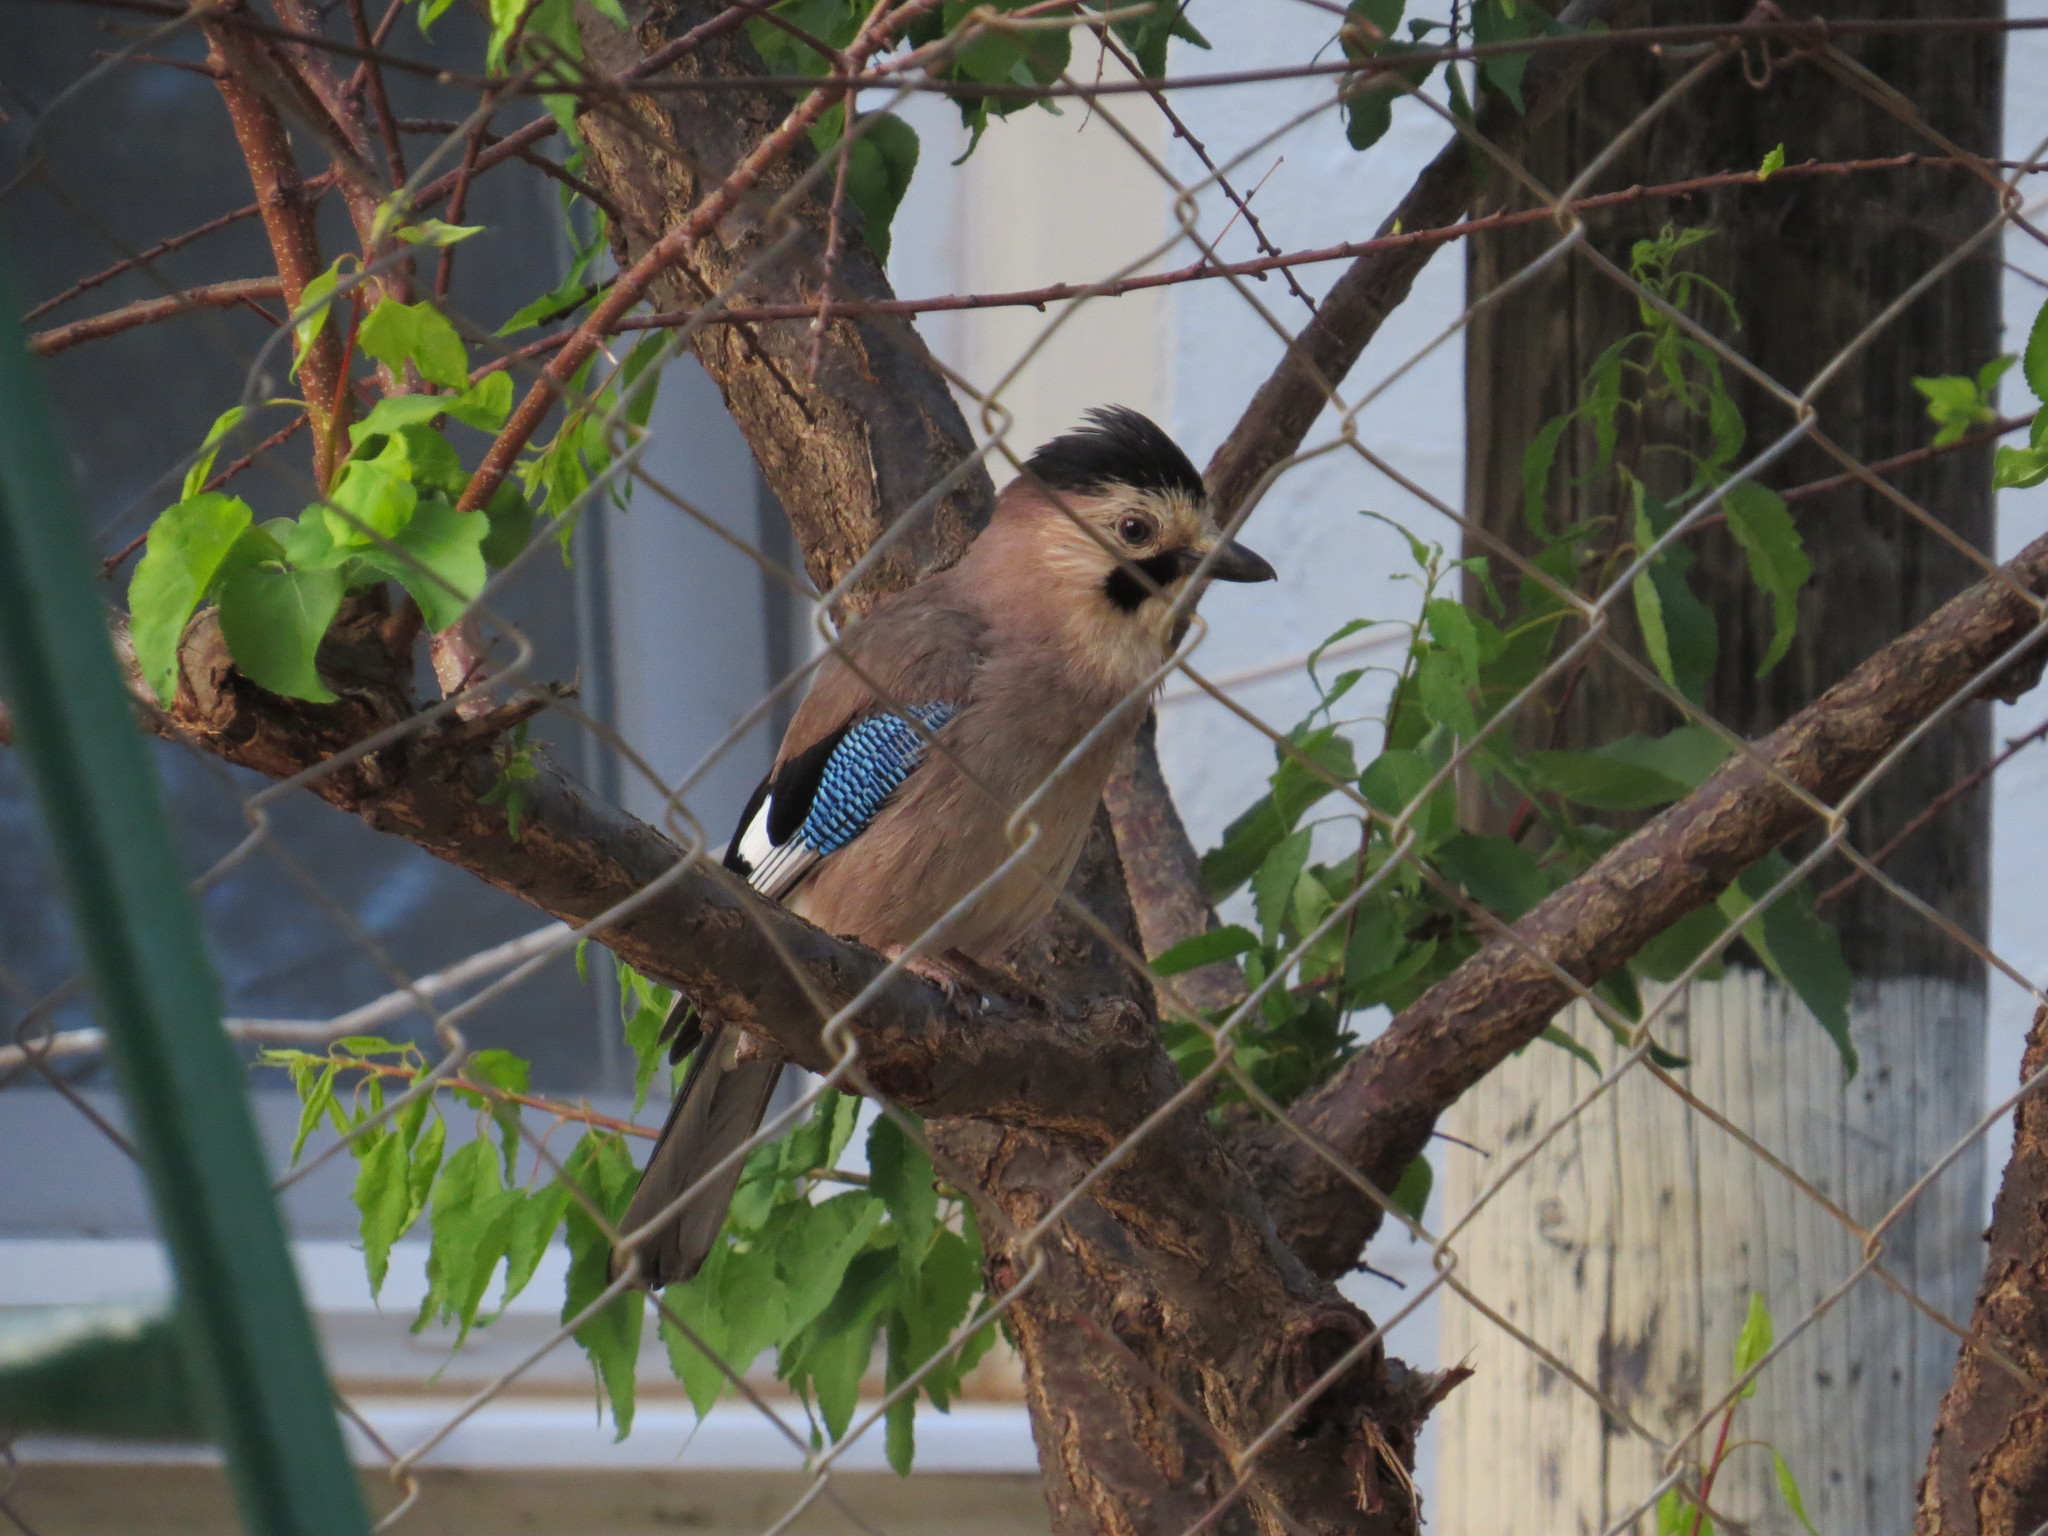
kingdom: Animalia
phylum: Chordata
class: Aves
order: Passeriformes
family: Corvidae
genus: Garrulus
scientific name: Garrulus glandarius
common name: Eurasian jay
